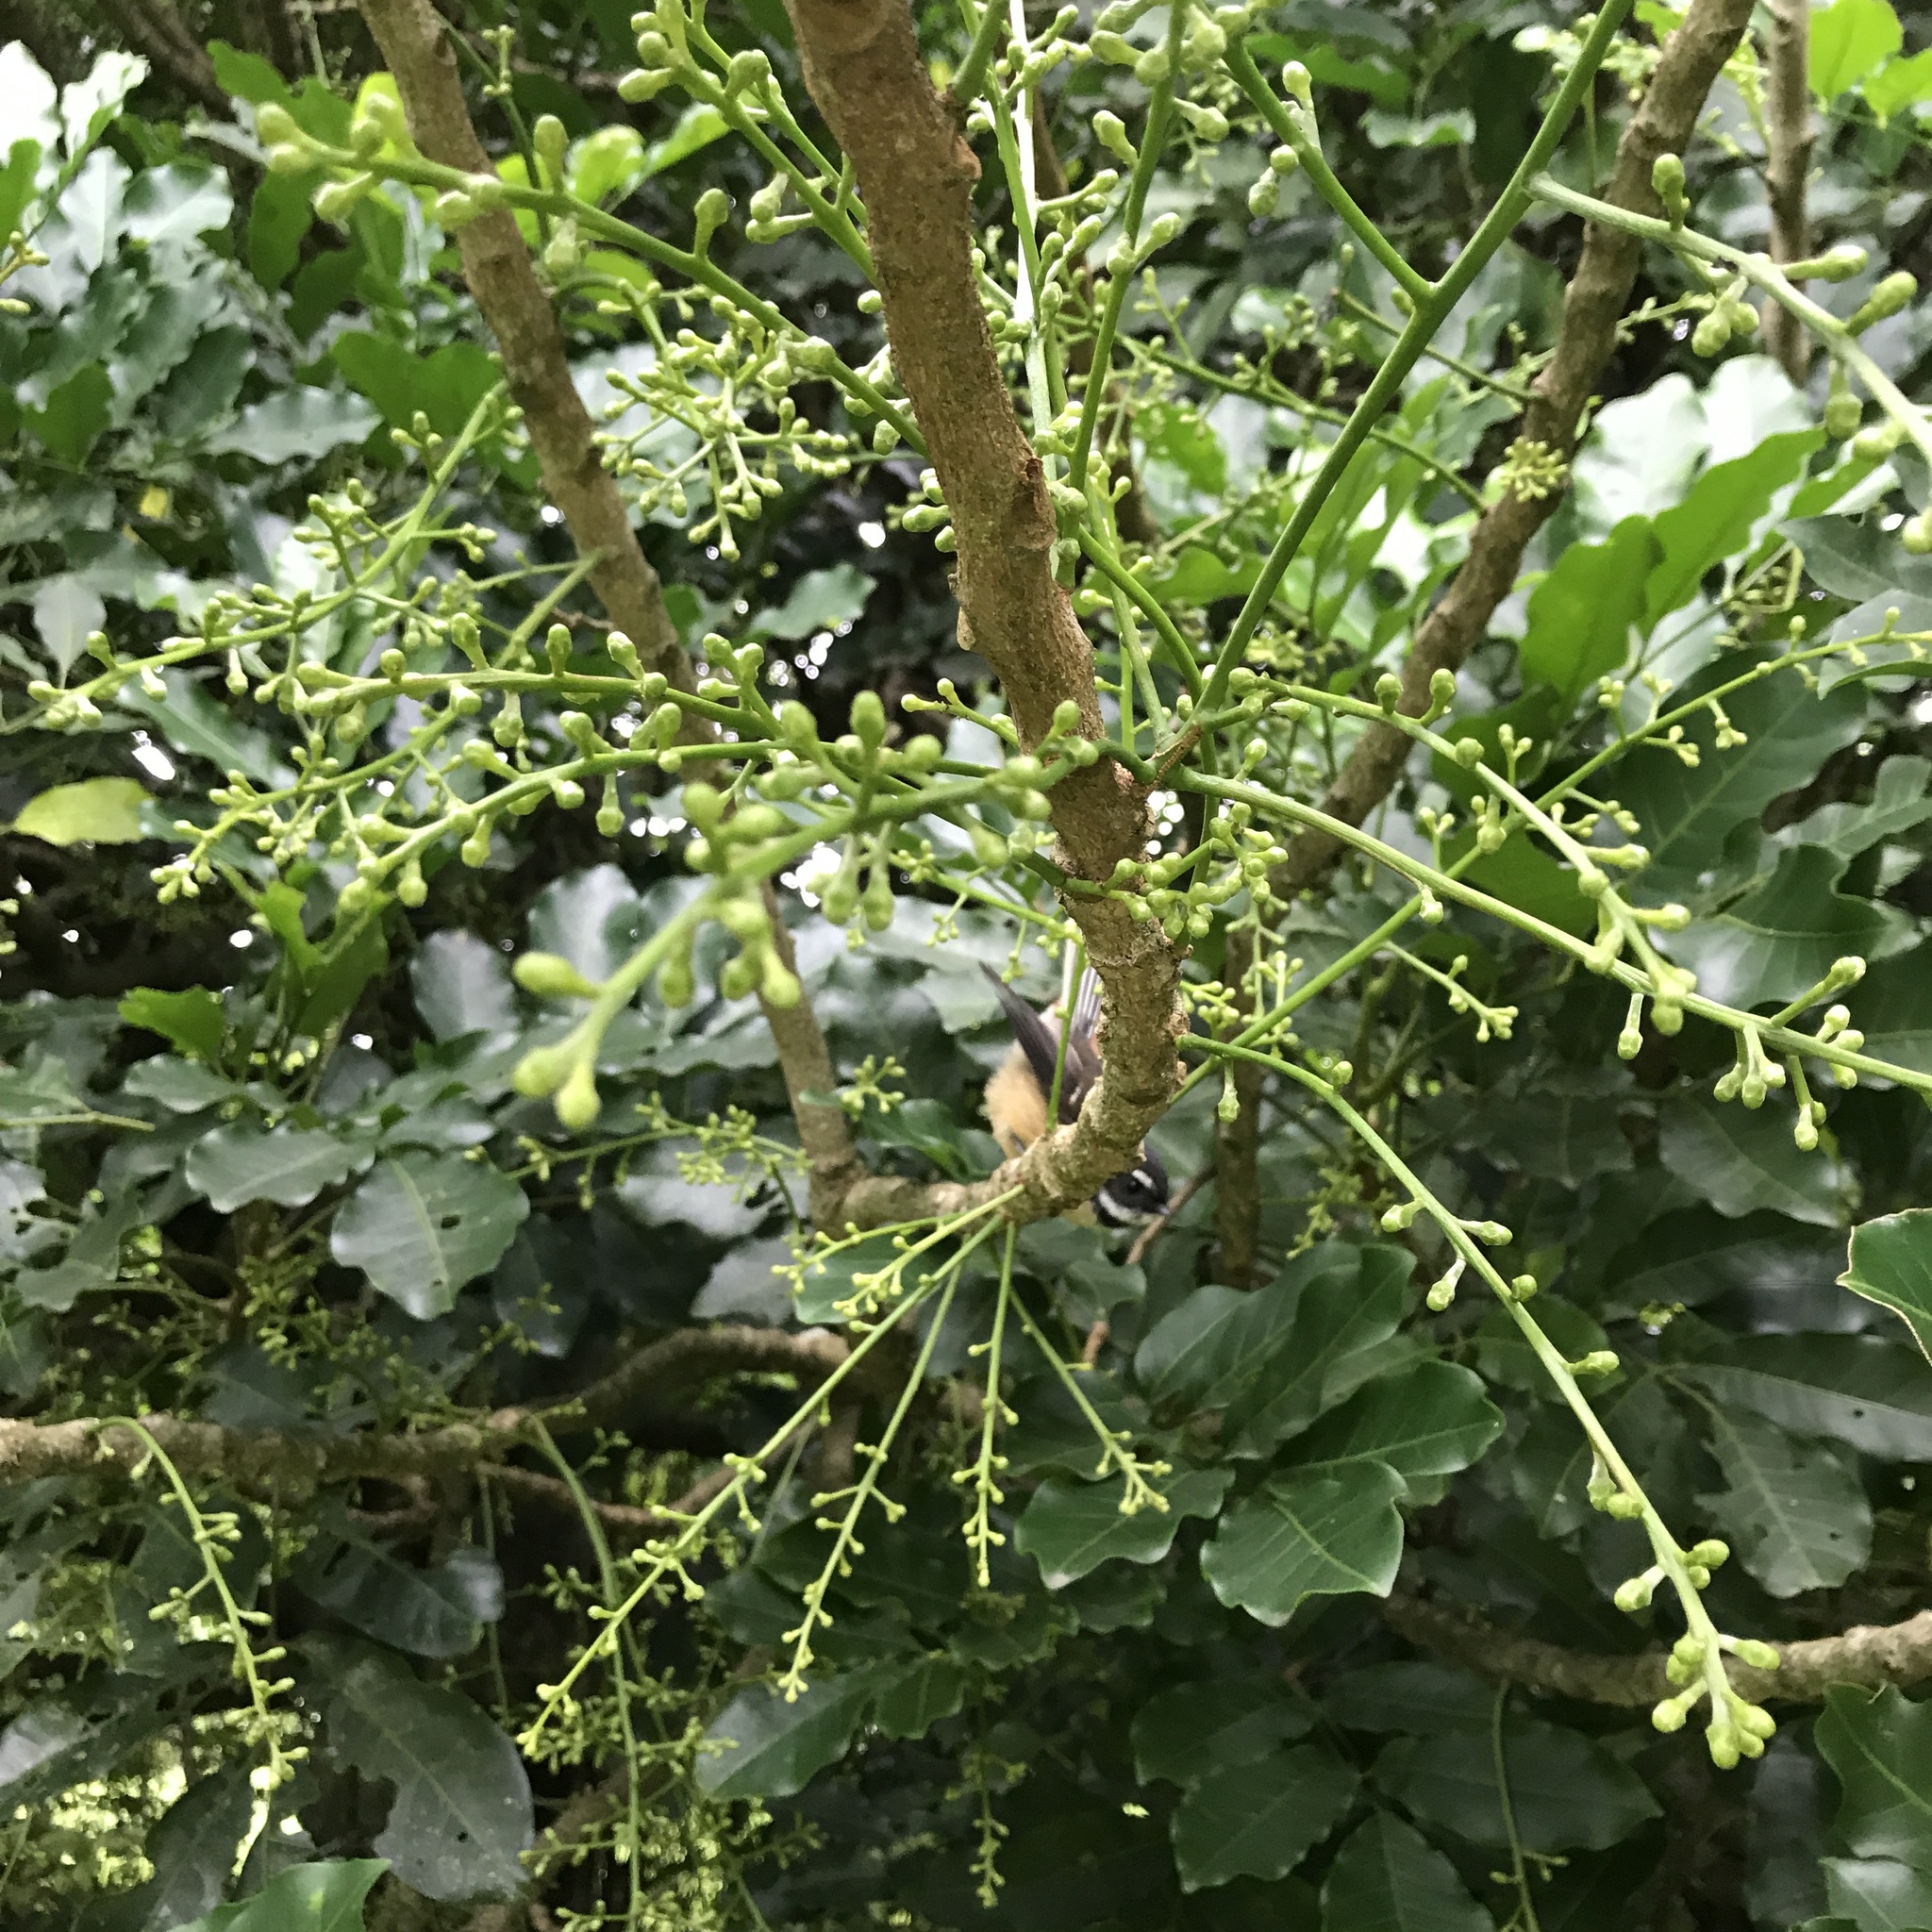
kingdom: Animalia
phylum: Chordata
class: Aves
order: Passeriformes
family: Rhipiduridae
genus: Rhipidura
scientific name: Rhipidura fuliginosa
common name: New zealand fantail
